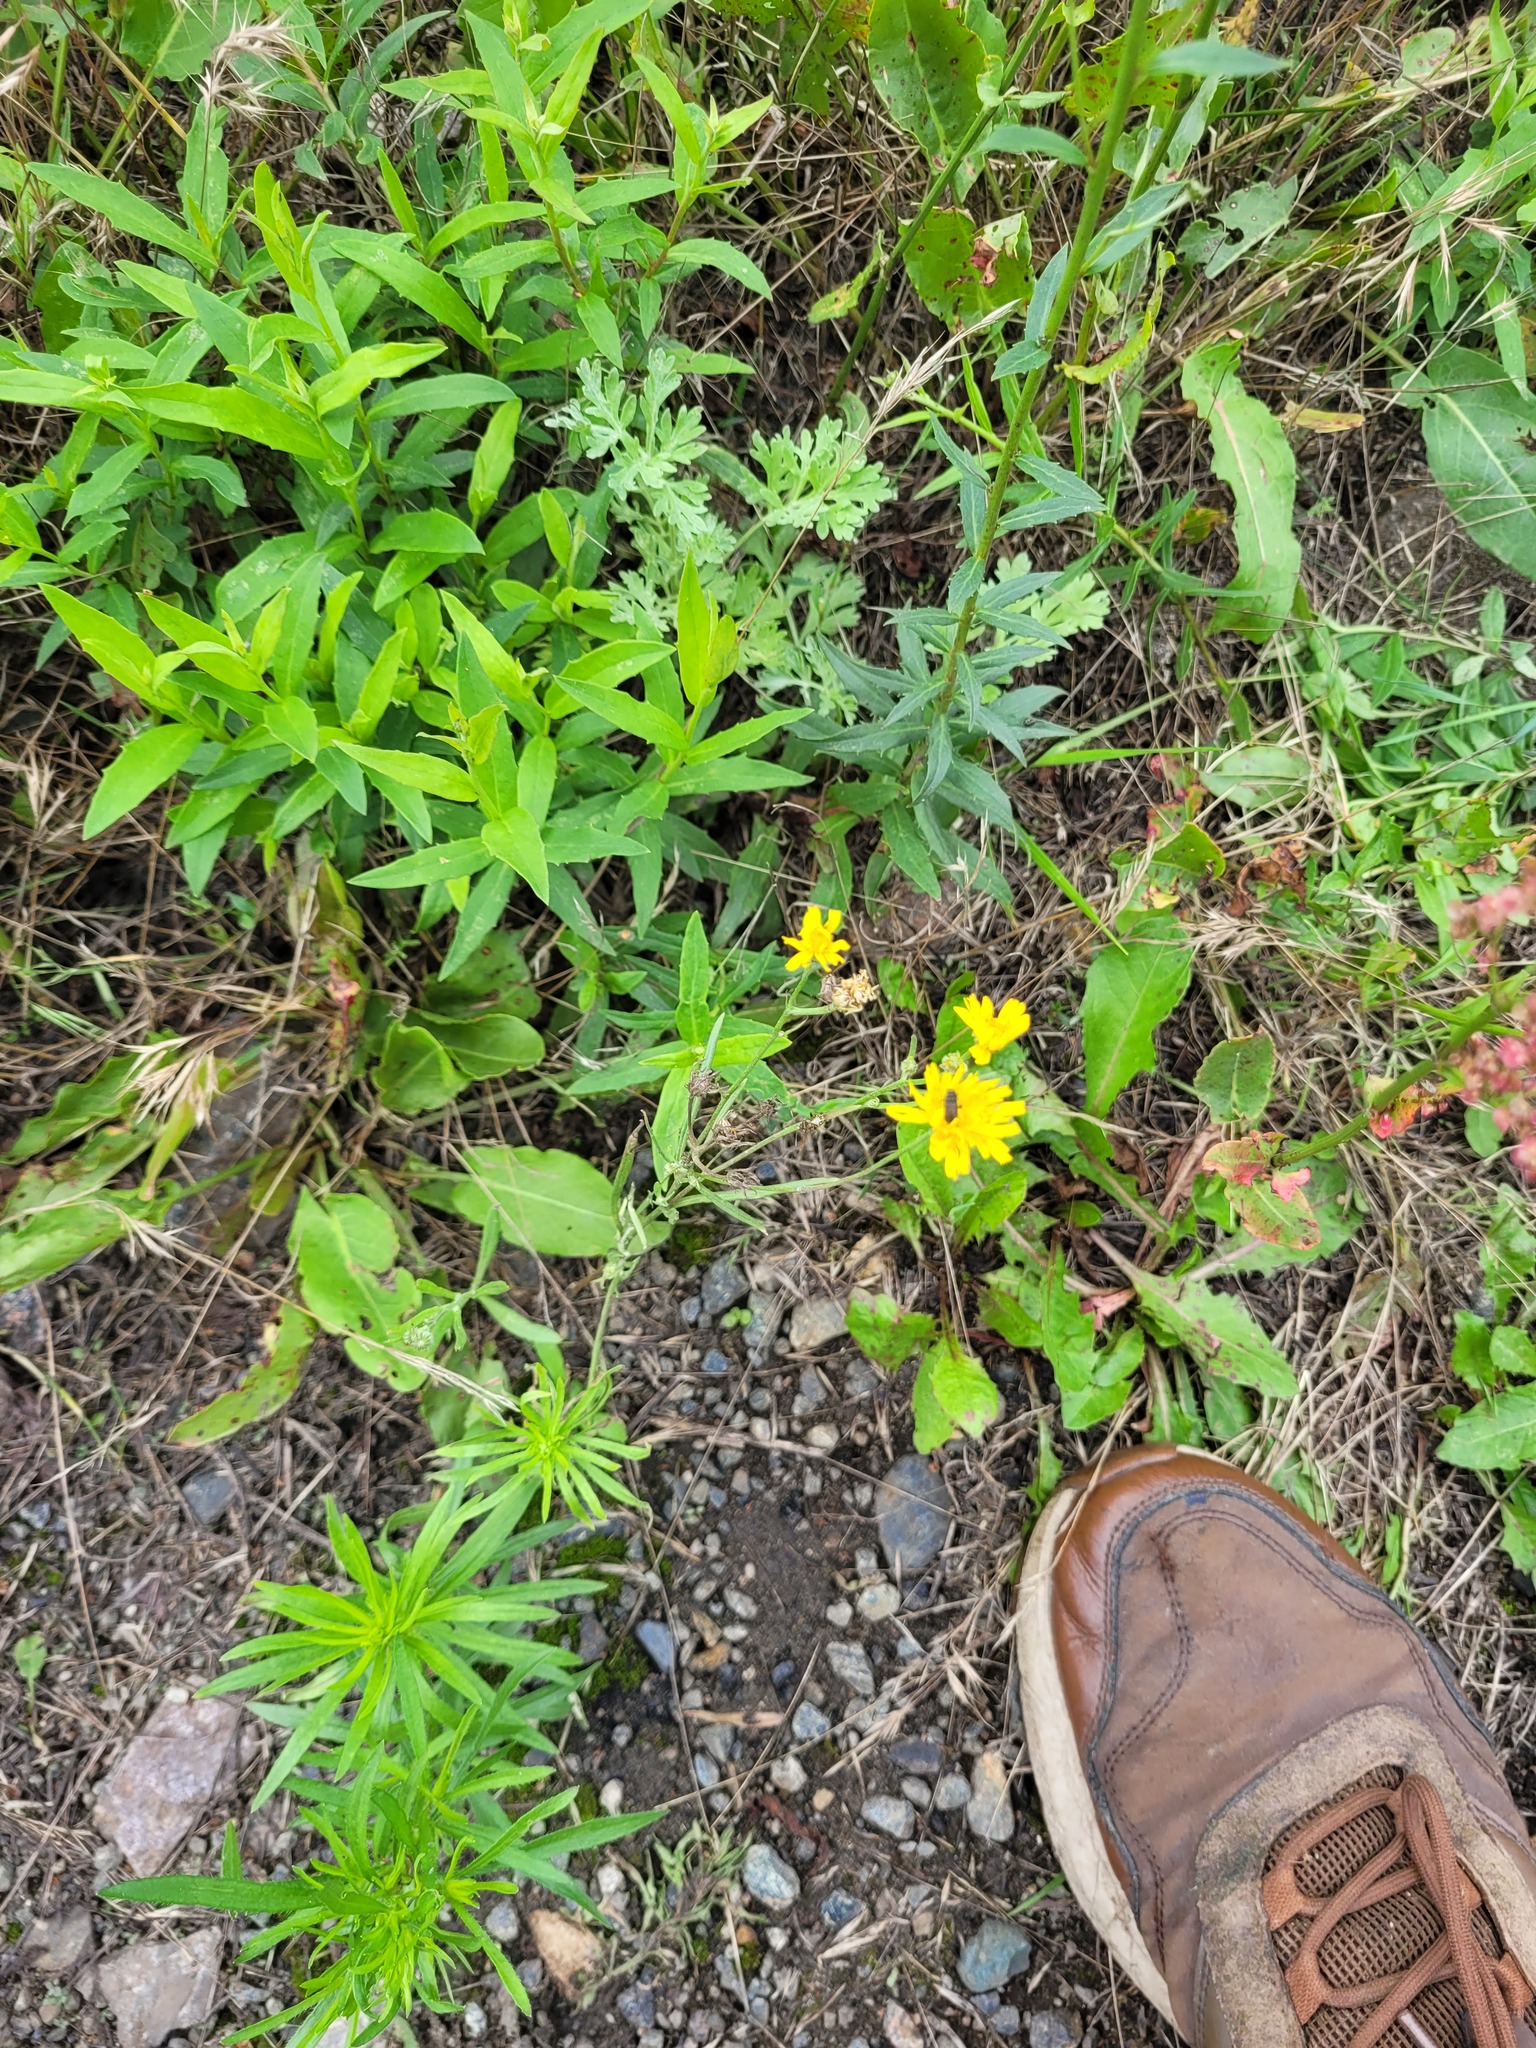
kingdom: Plantae
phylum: Tracheophyta
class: Magnoliopsida
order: Asterales
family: Asteraceae
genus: Crepis
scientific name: Crepis tectorum
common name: Narrow-leaved hawk's-beard
